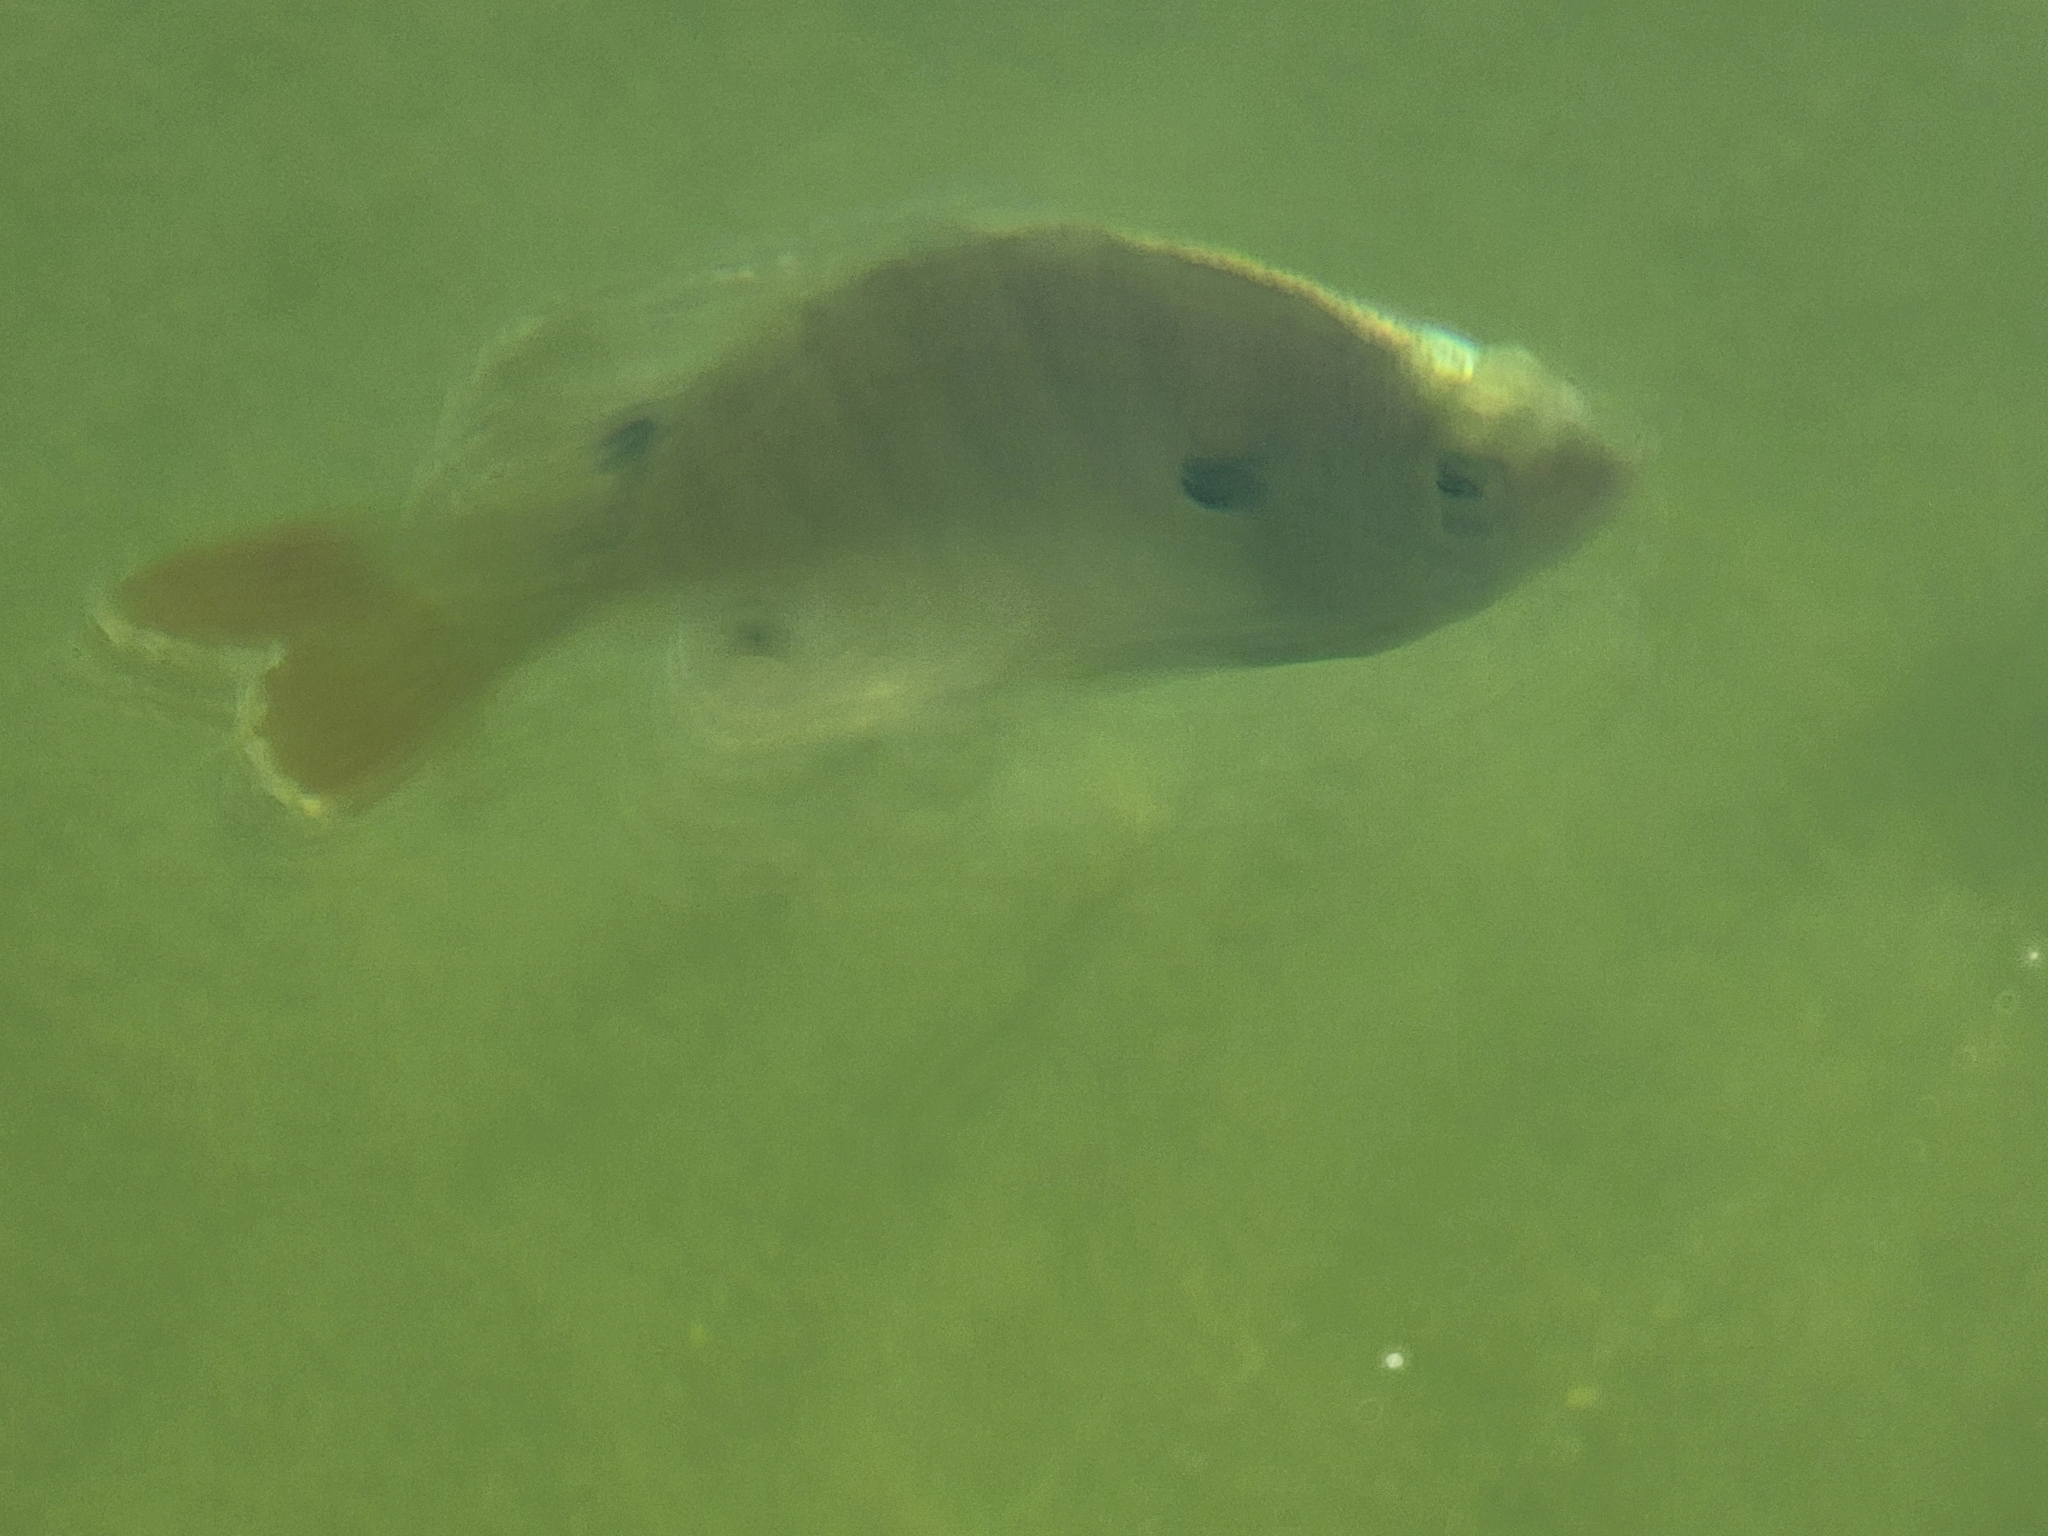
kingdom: Animalia
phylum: Chordata
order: Perciformes
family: Centrarchidae
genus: Lepomis
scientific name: Lepomis macrochirus
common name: Bluegill
